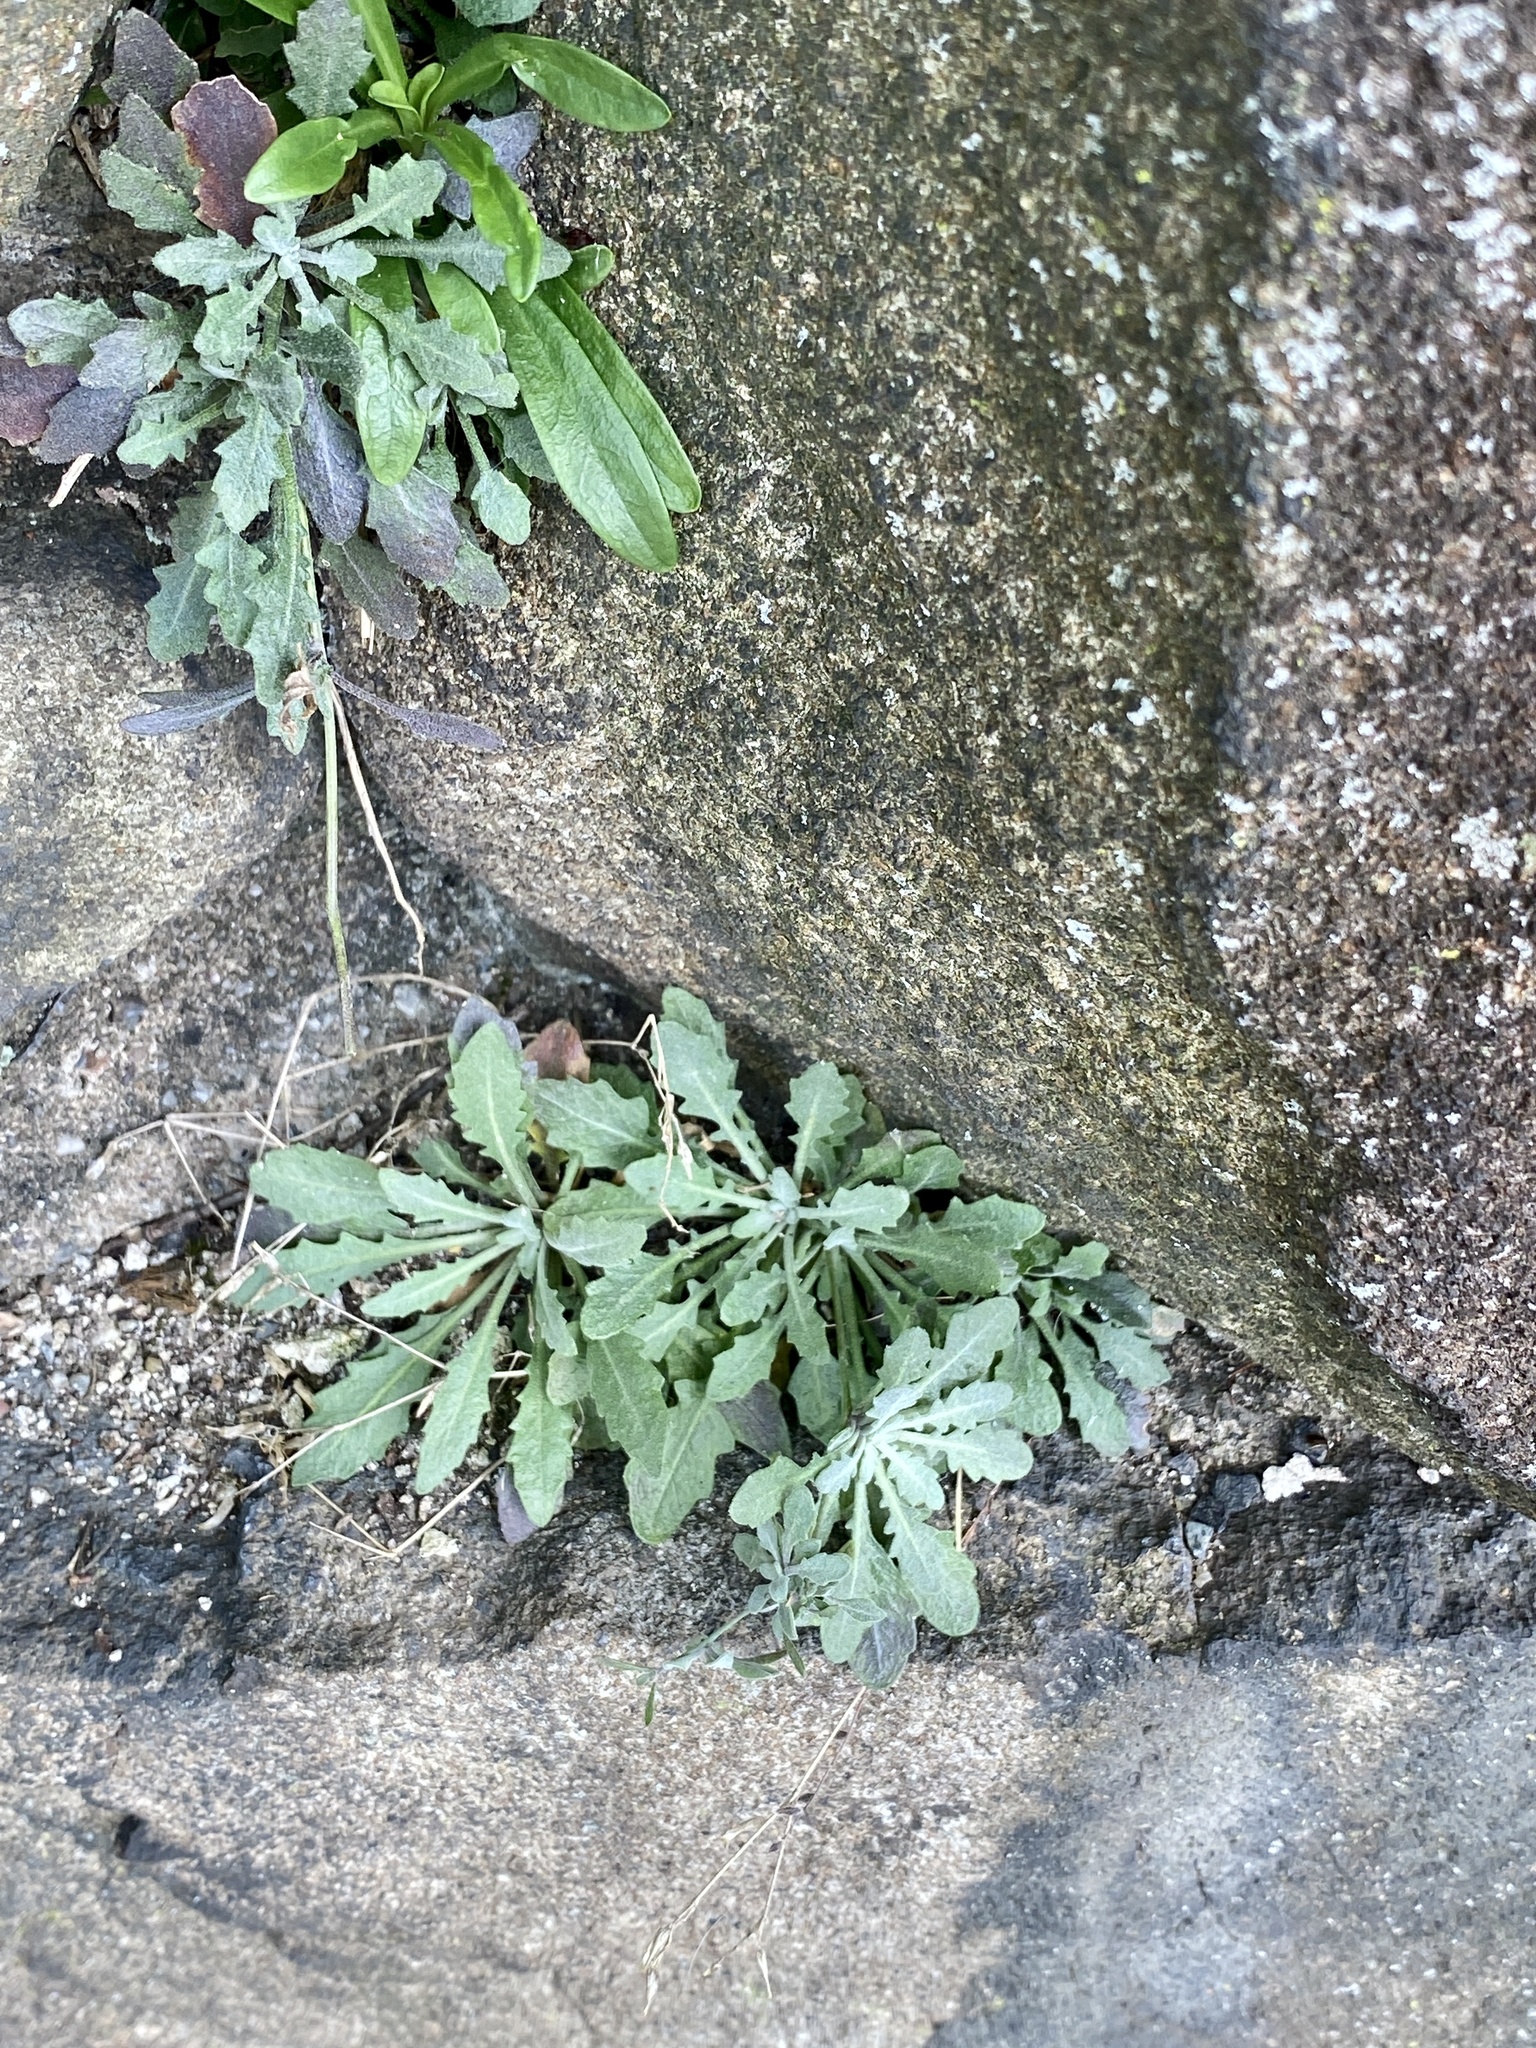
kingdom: Plantae
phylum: Tracheophyta
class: Magnoliopsida
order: Brassicales
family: Brassicaceae
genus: Arabidopsis
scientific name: Arabidopsis lyrata
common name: Lyrate rockcress
